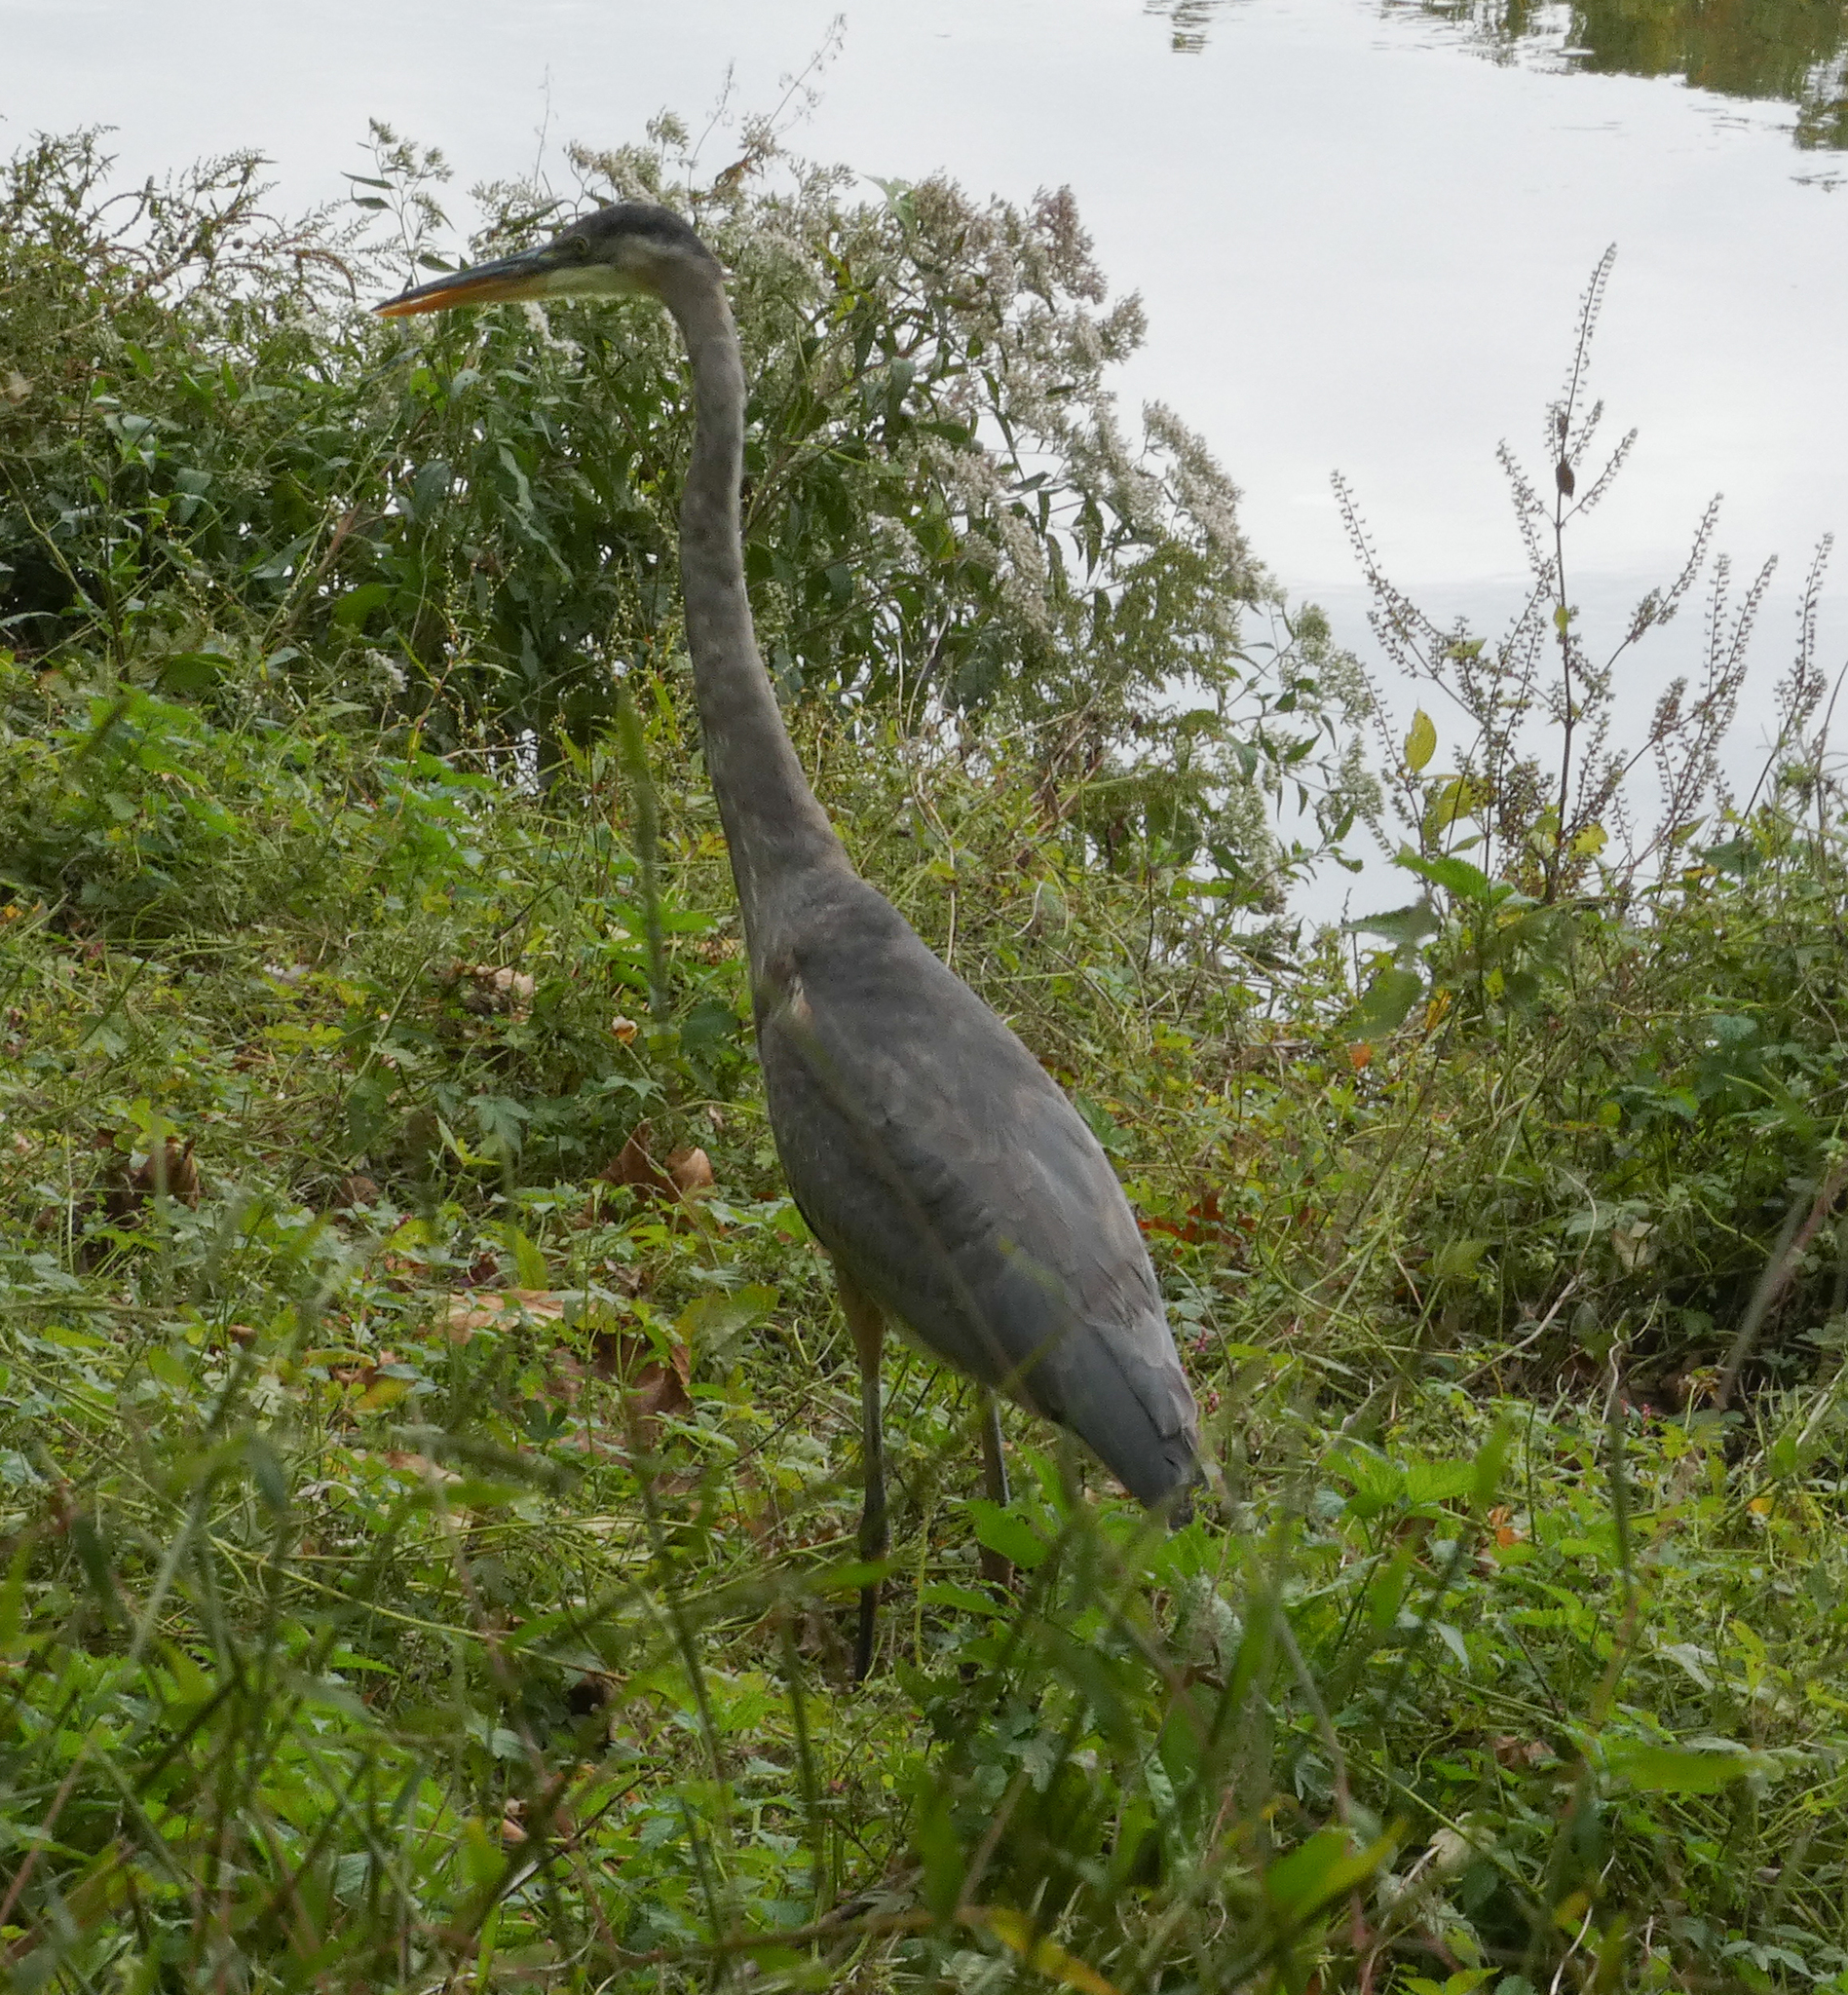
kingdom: Animalia
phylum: Chordata
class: Aves
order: Pelecaniformes
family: Ardeidae
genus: Ardea
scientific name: Ardea herodias
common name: Great blue heron
